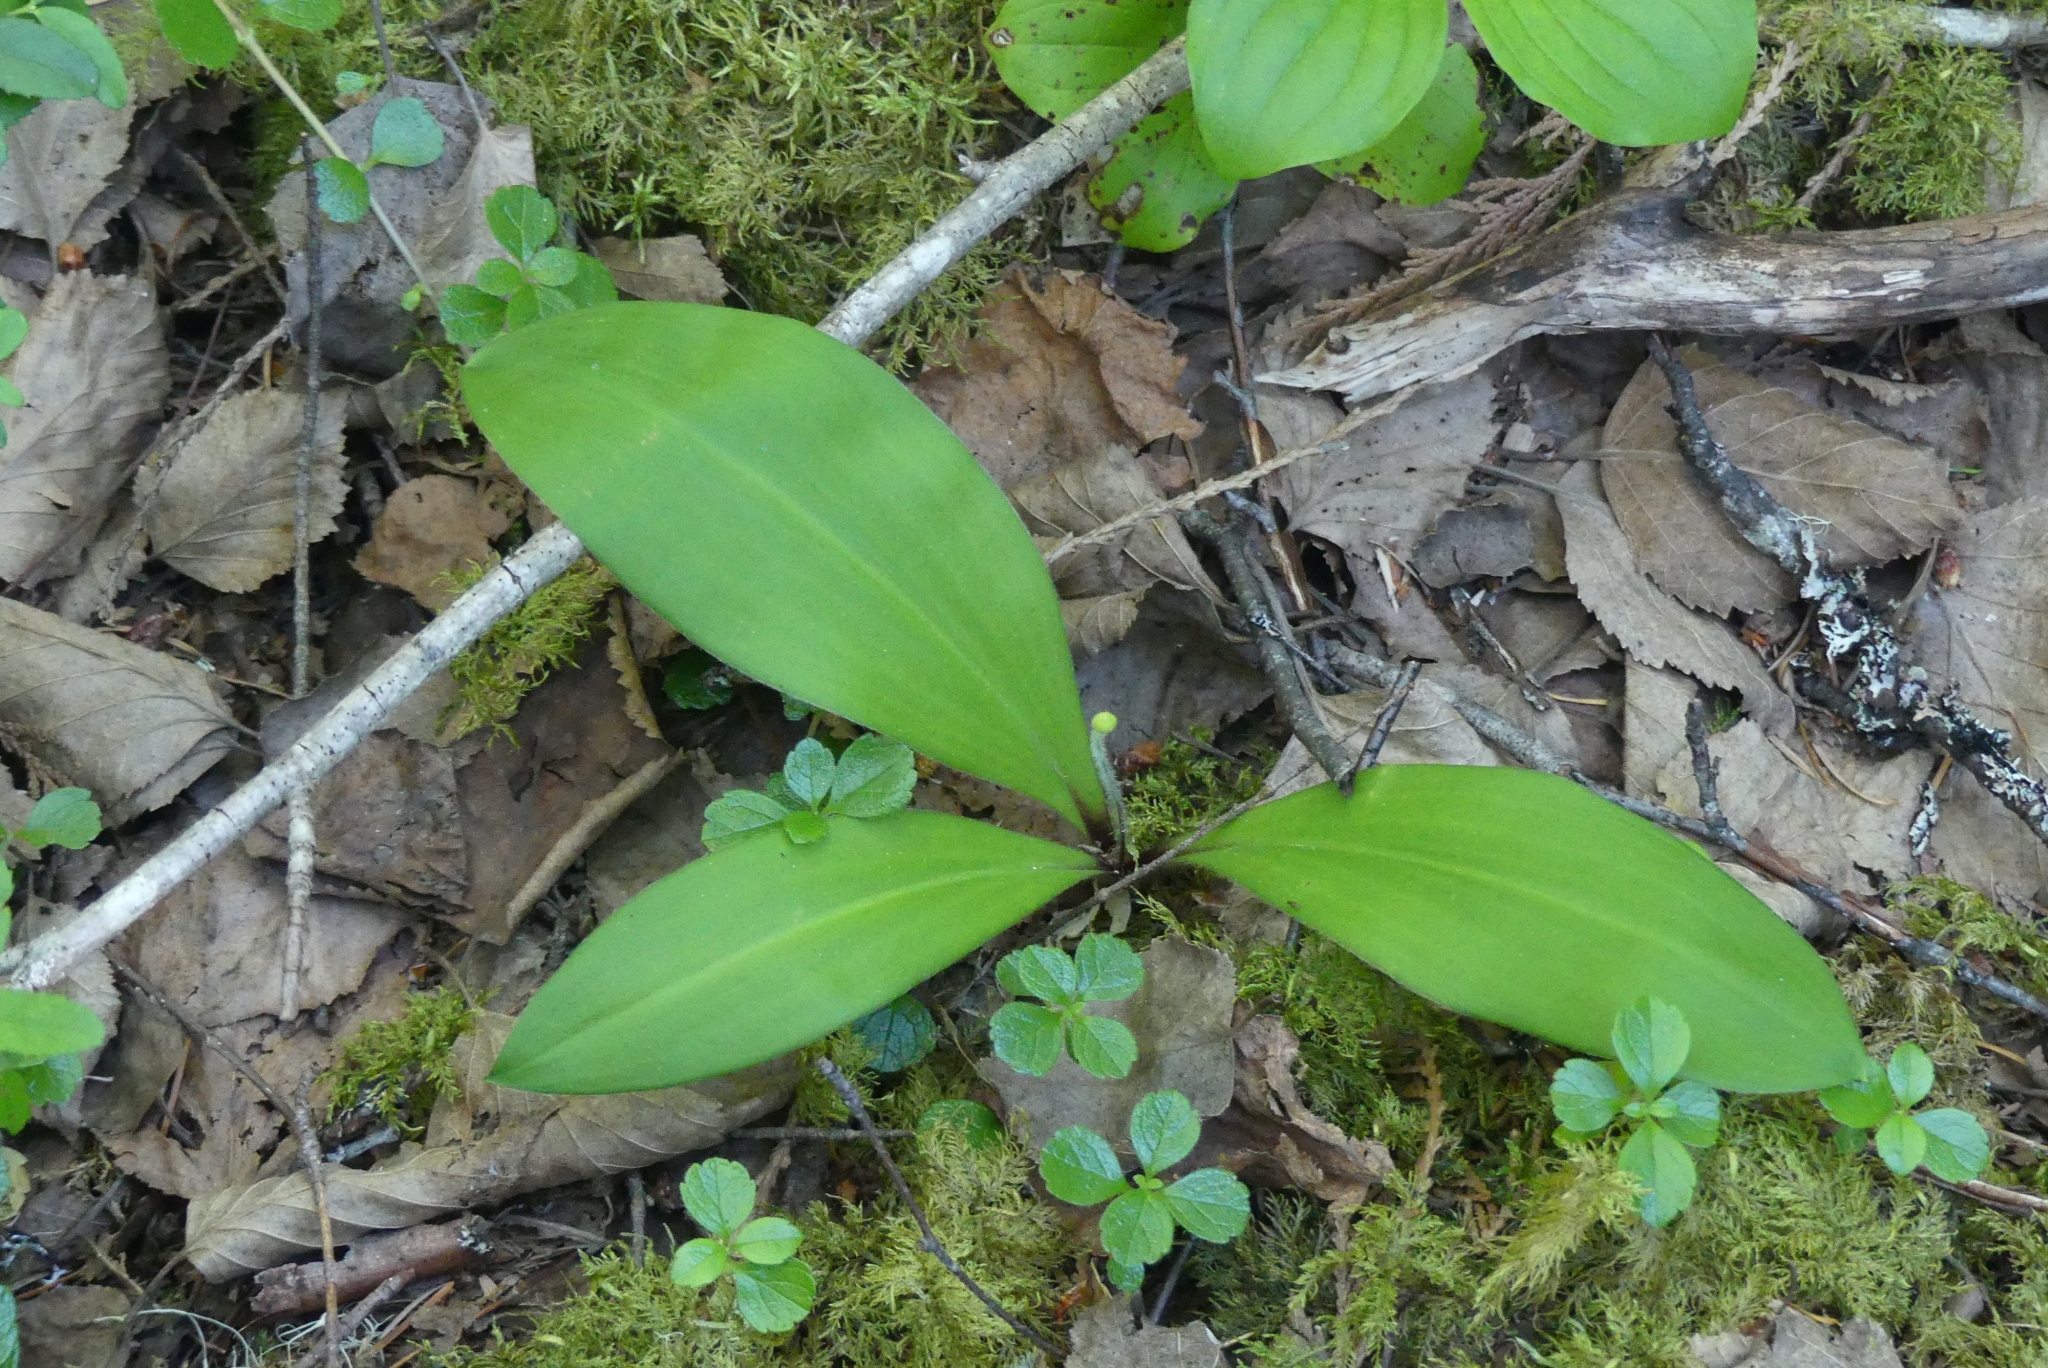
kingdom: Plantae
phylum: Tracheophyta
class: Liliopsida
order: Liliales
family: Liliaceae
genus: Clintonia
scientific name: Clintonia uniflora
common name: Queen's cup
